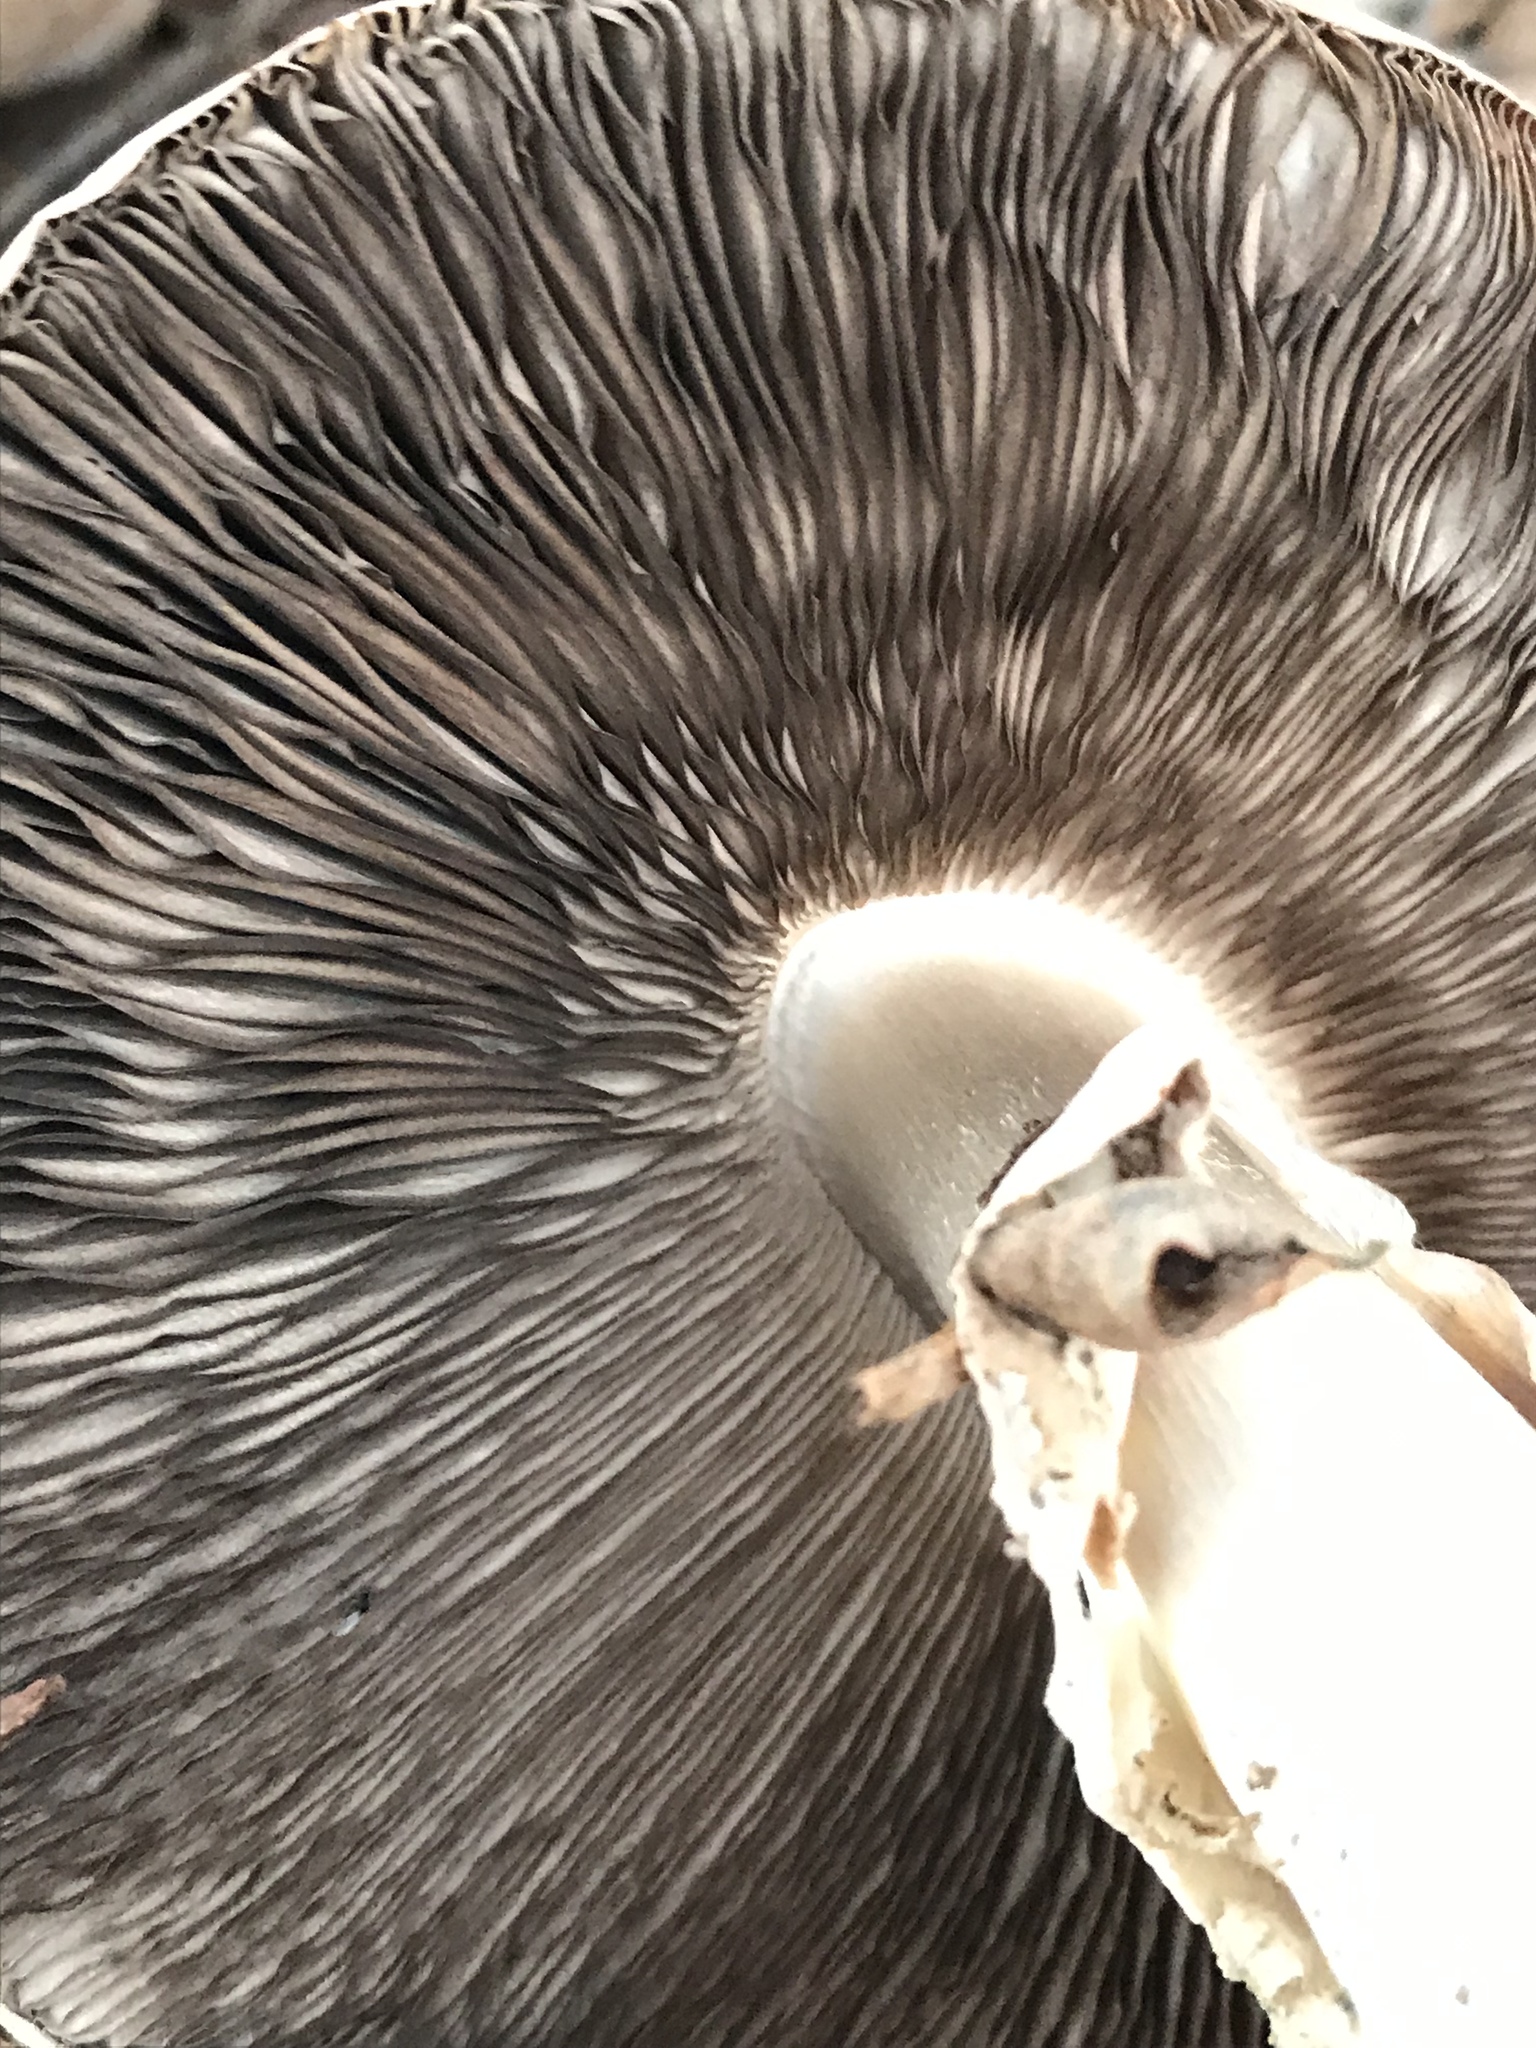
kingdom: Fungi
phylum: Basidiomycota
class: Agaricomycetes
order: Agaricales
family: Agaricaceae
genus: Agaricus
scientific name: Agaricus californicus
